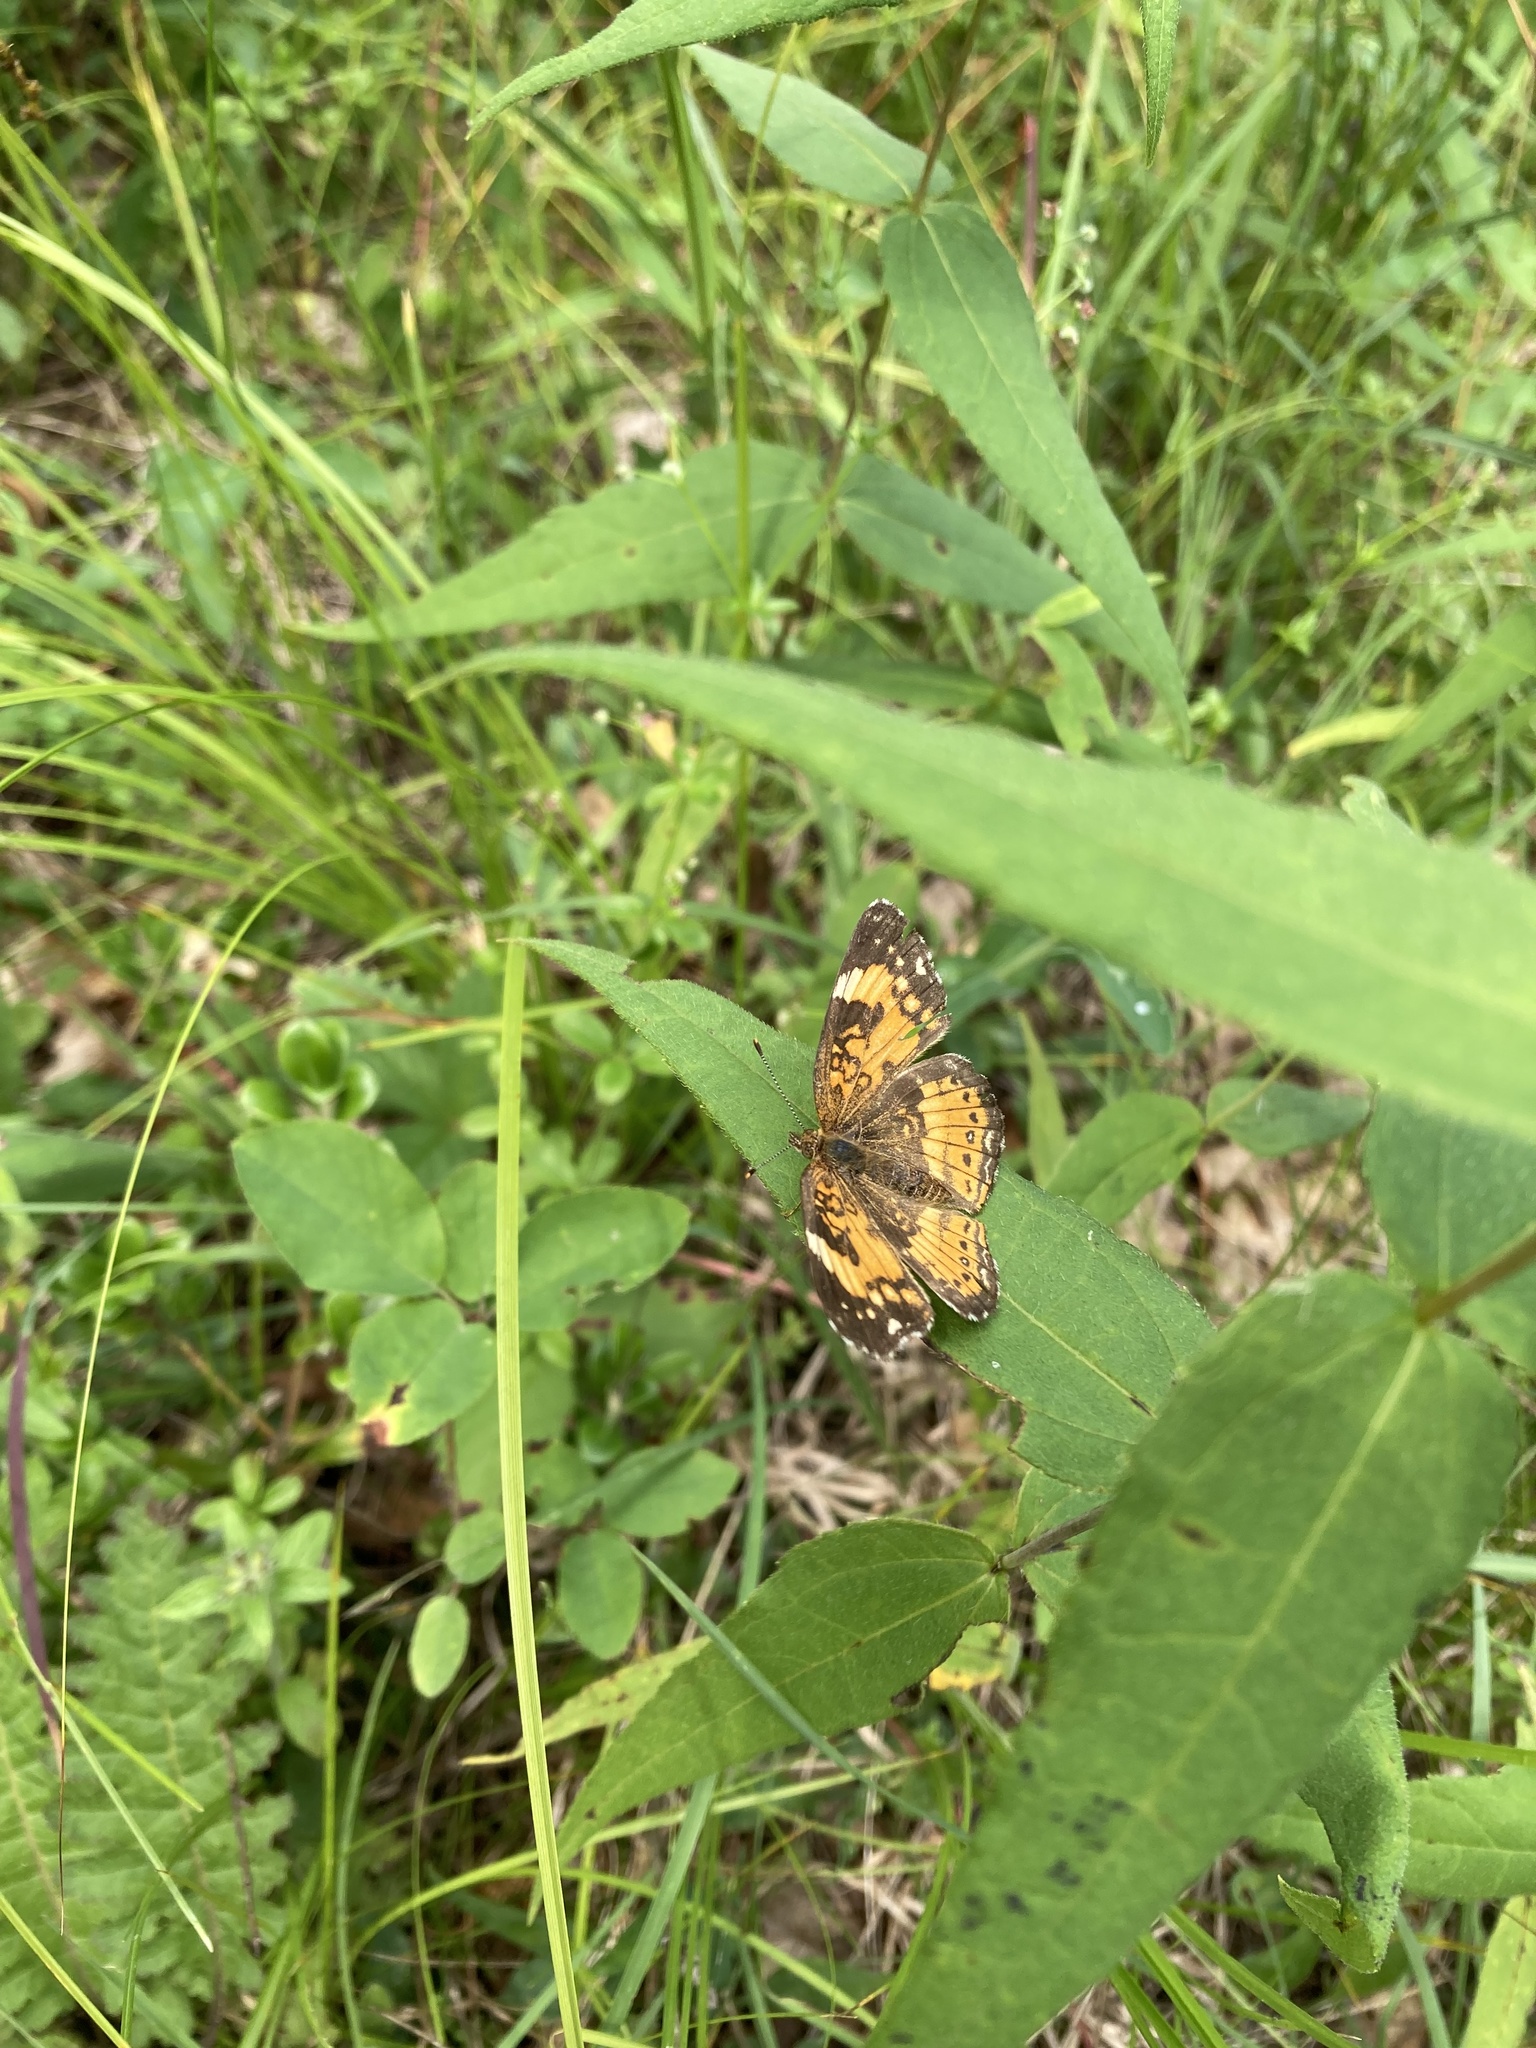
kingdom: Animalia
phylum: Arthropoda
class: Insecta
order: Lepidoptera
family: Nymphalidae
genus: Chlosyne
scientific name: Chlosyne nycteis
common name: Silvery checkerspot
